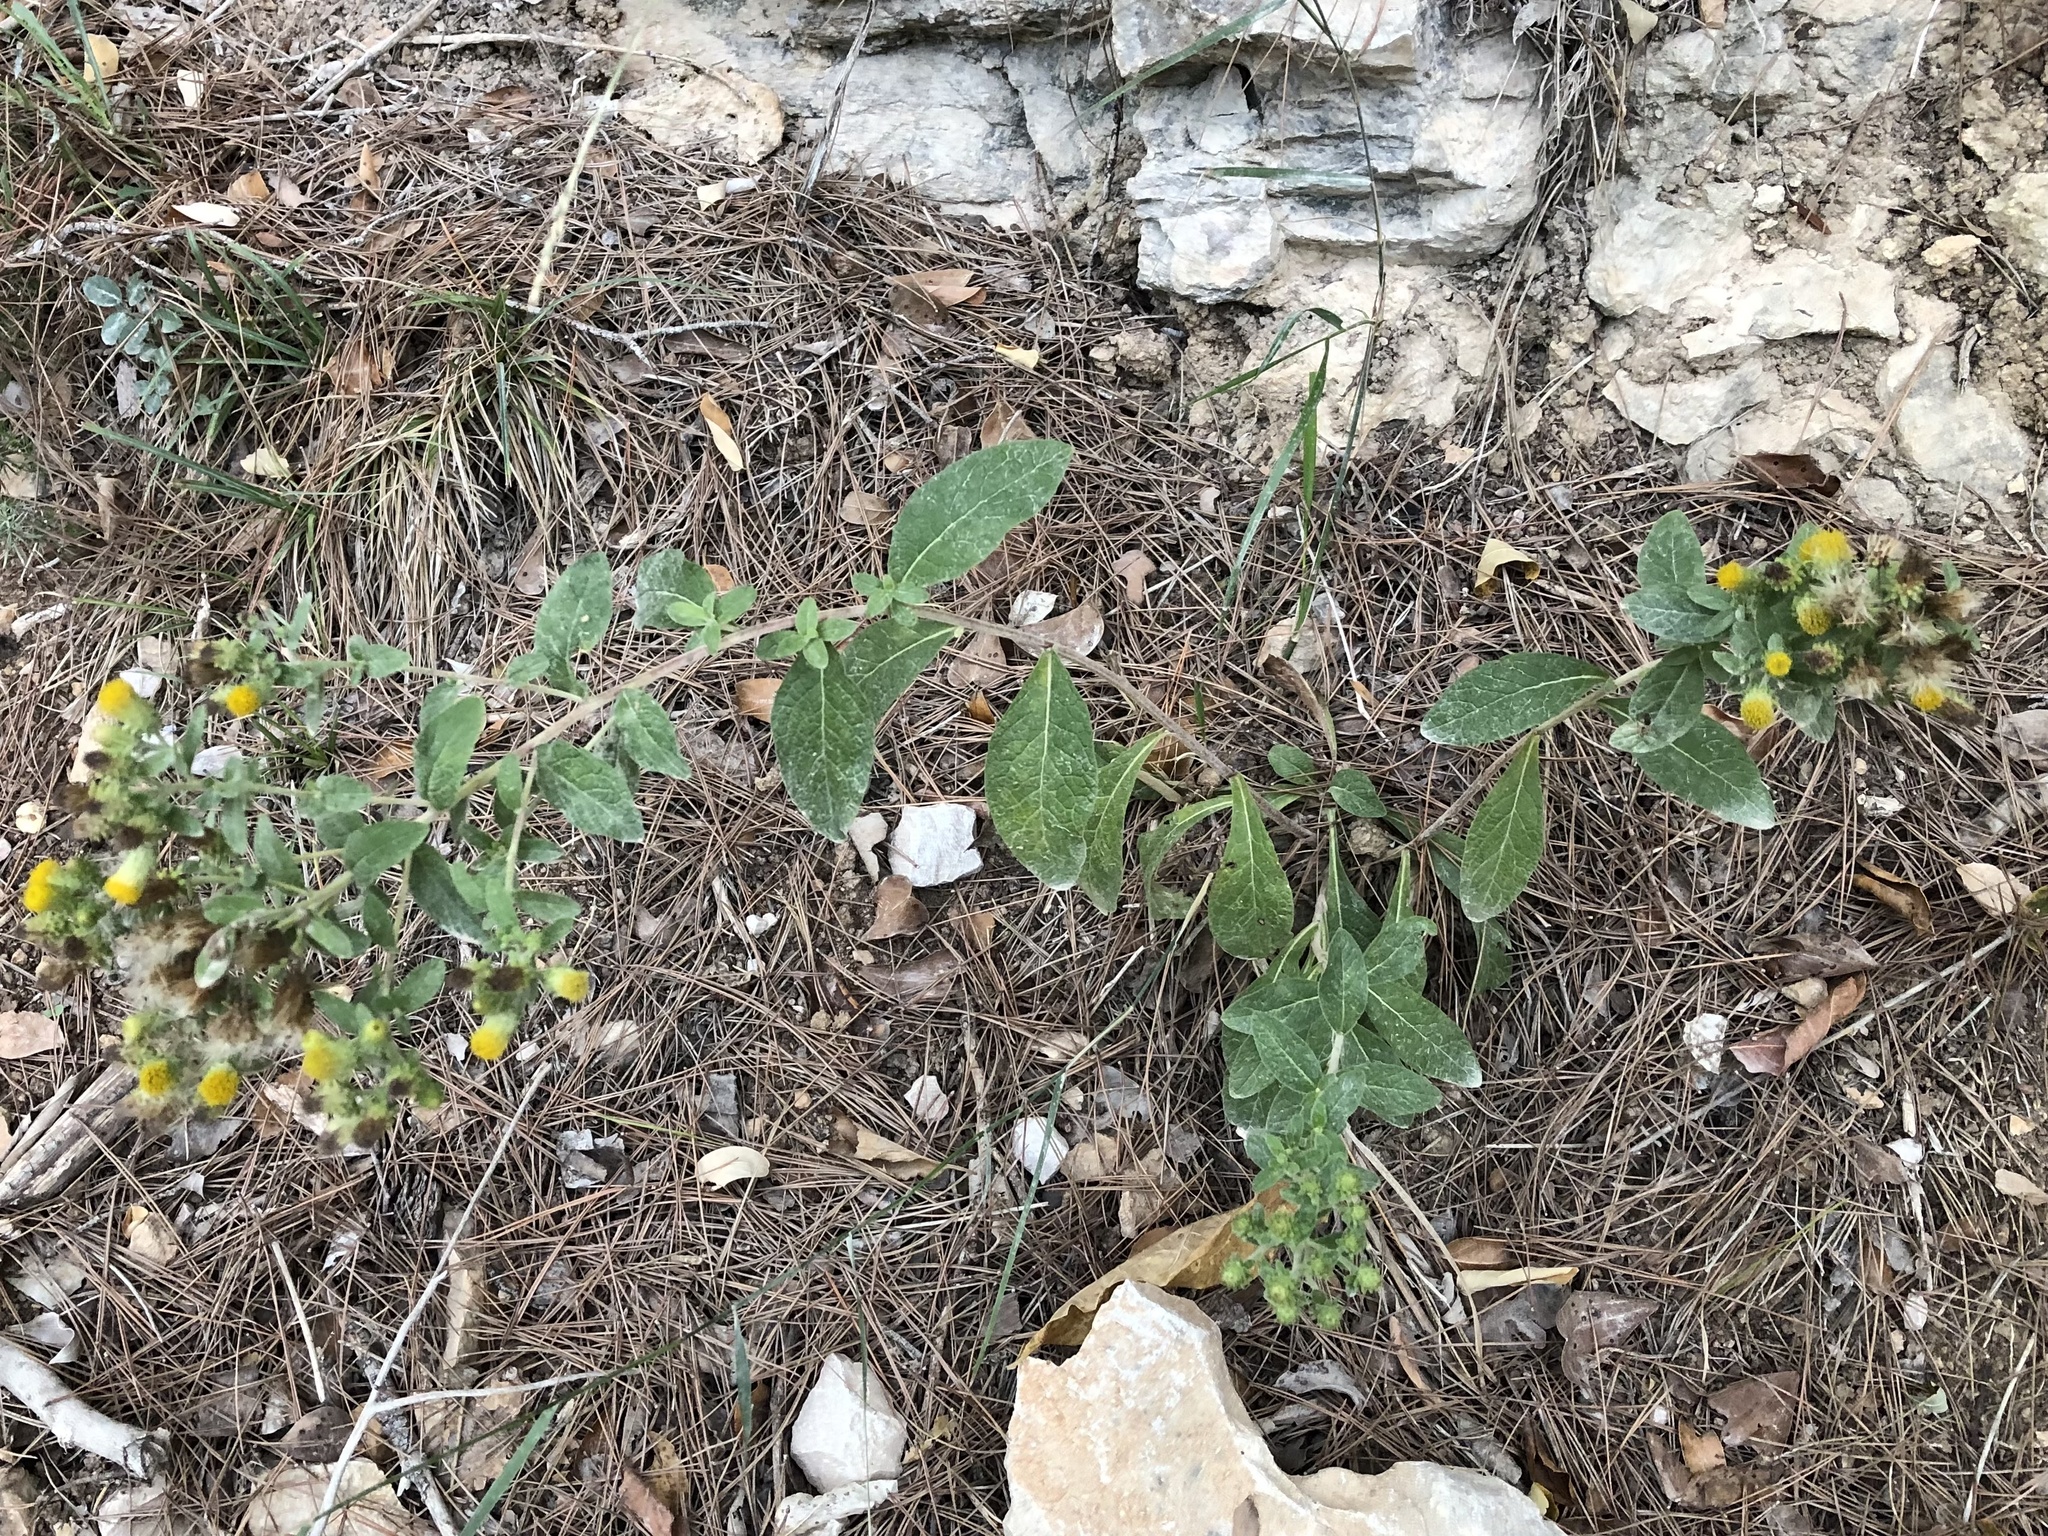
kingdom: Plantae
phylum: Tracheophyta
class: Magnoliopsida
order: Asterales
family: Asteraceae
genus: Pentanema
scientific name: Pentanema squarrosum
